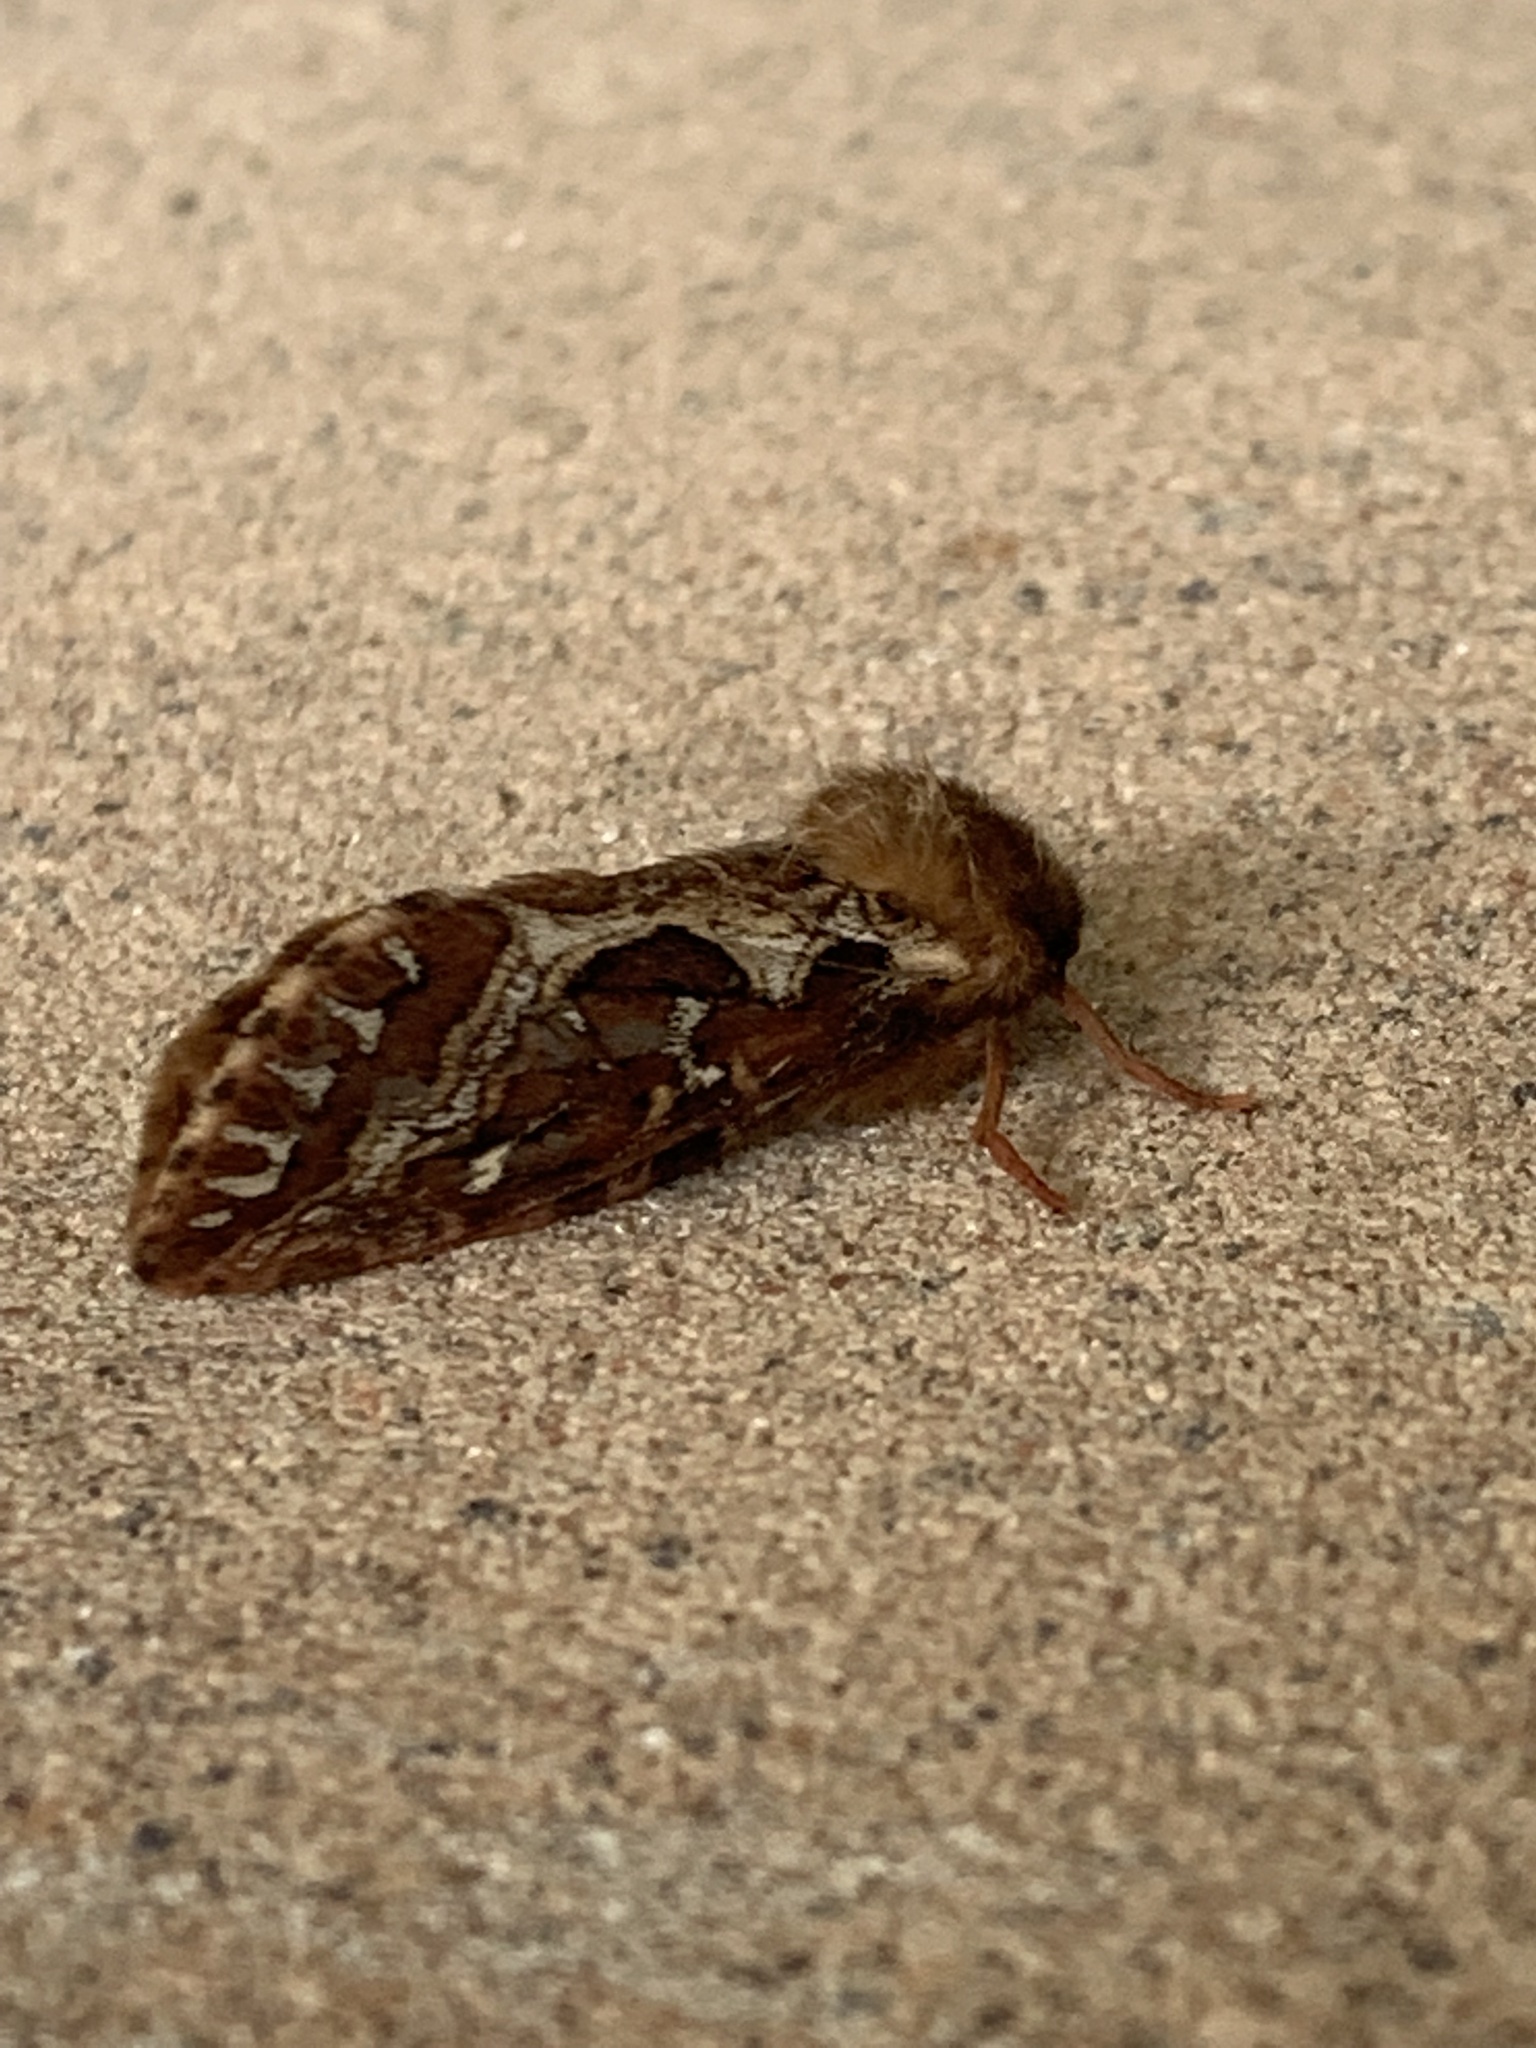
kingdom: Animalia
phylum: Arthropoda
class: Insecta
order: Lepidoptera
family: Hepialidae
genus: Korscheltellus
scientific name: Korscheltellus fusconebulosus
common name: Map-winged swift
